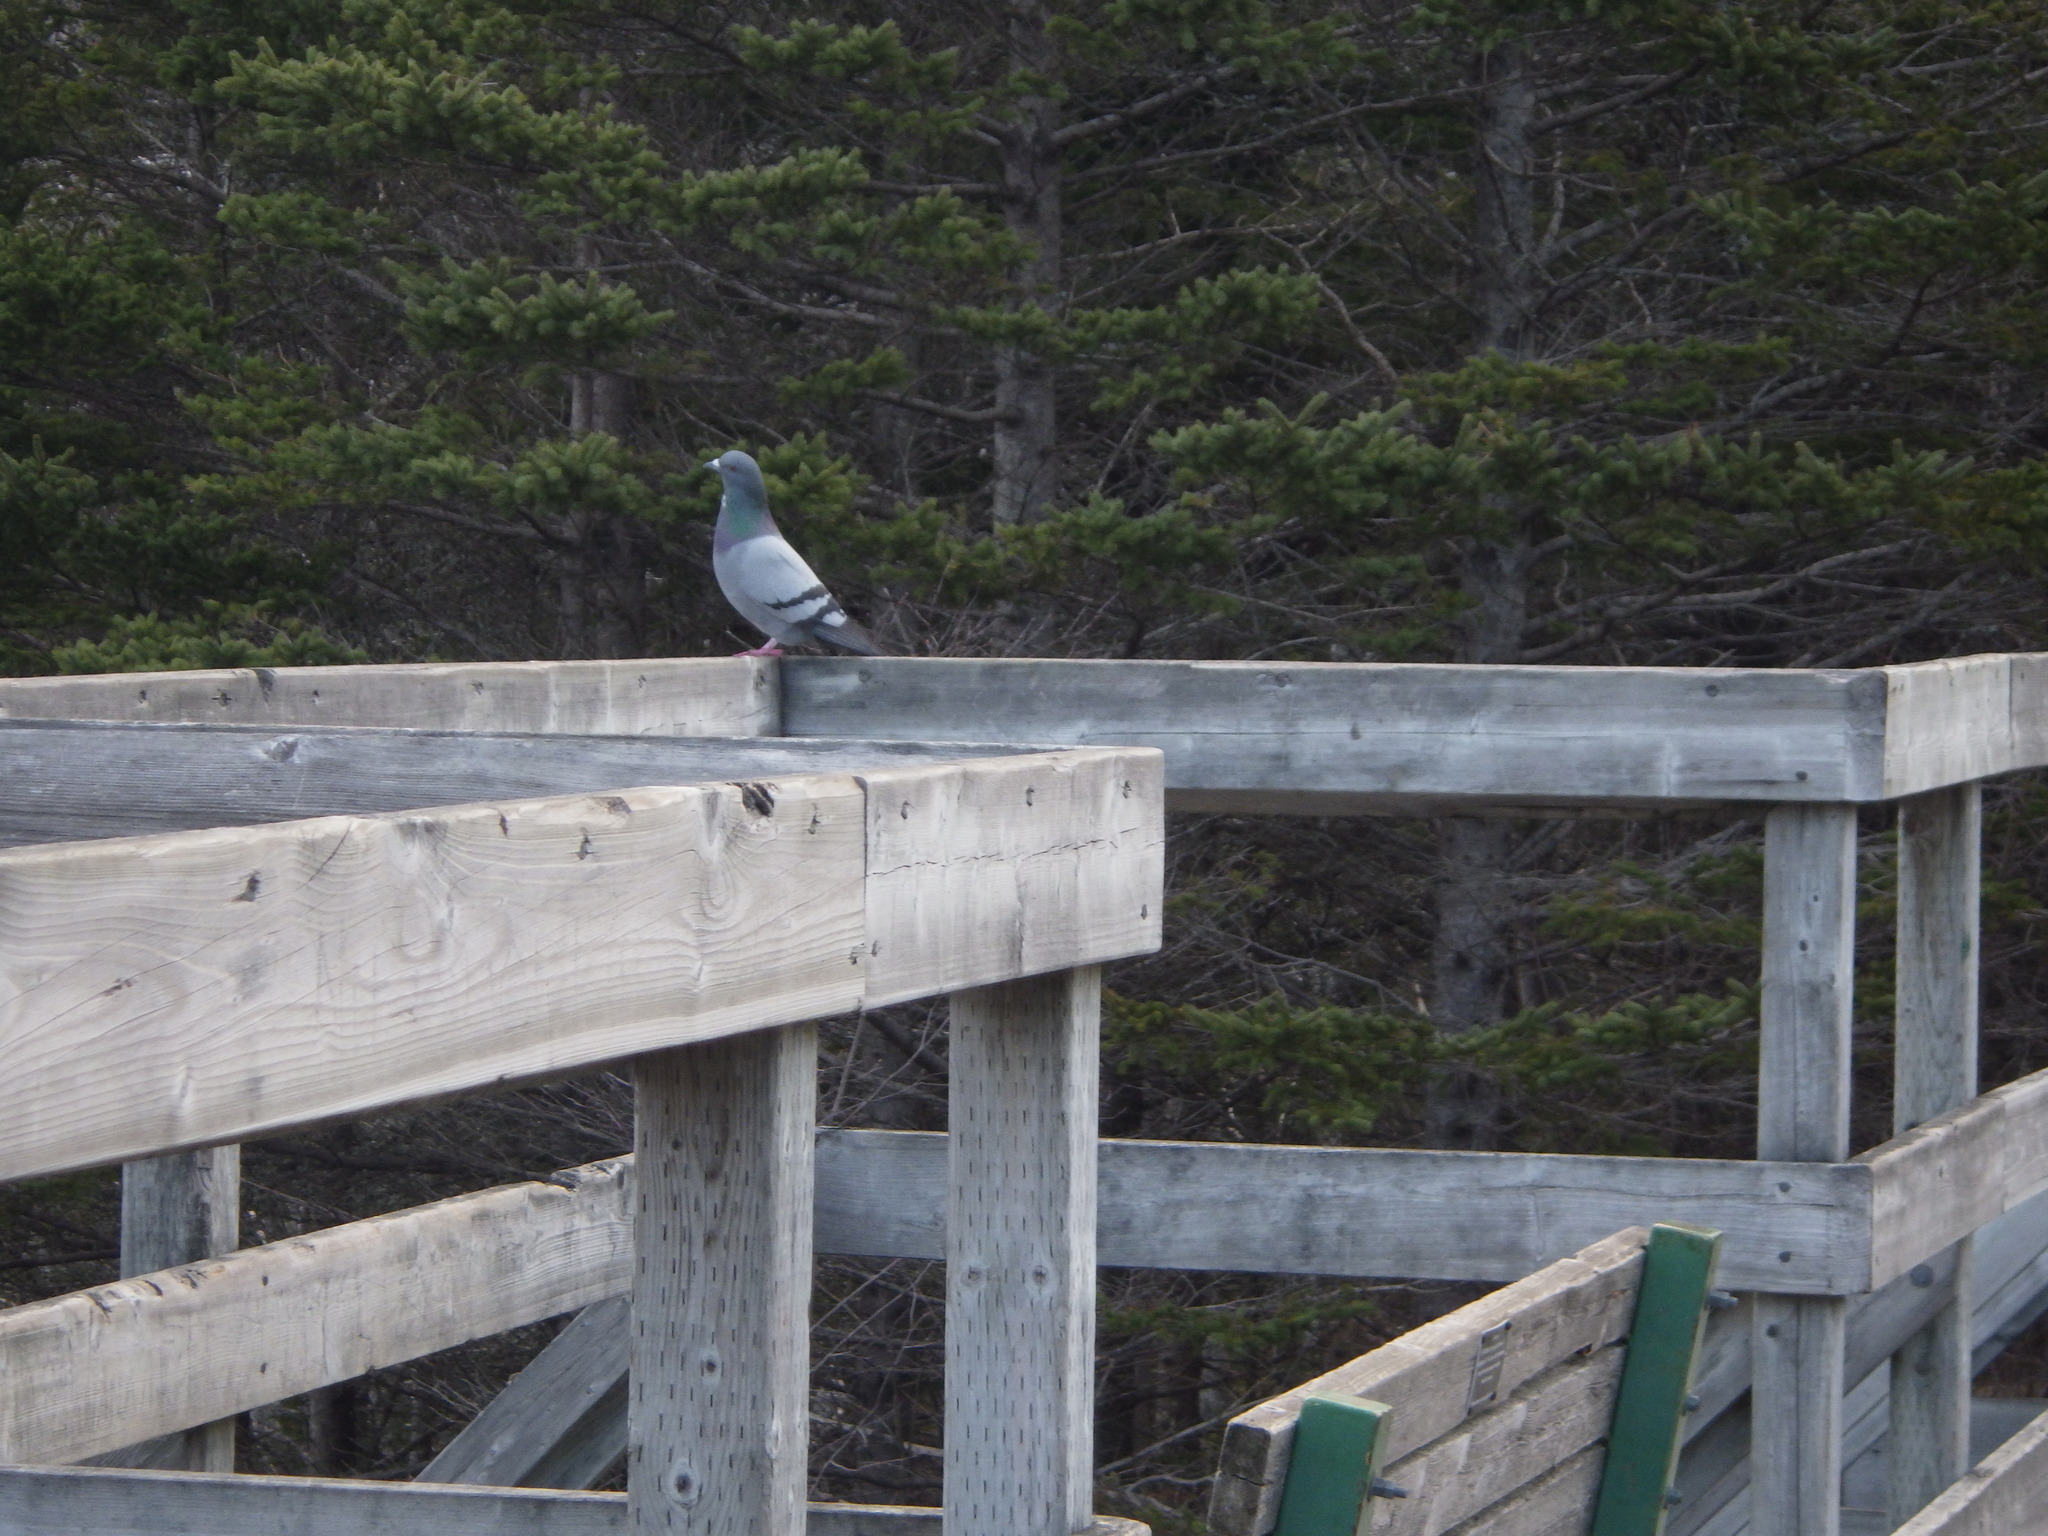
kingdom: Animalia
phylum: Chordata
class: Aves
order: Columbiformes
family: Columbidae
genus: Columba
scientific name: Columba livia
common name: Rock pigeon
